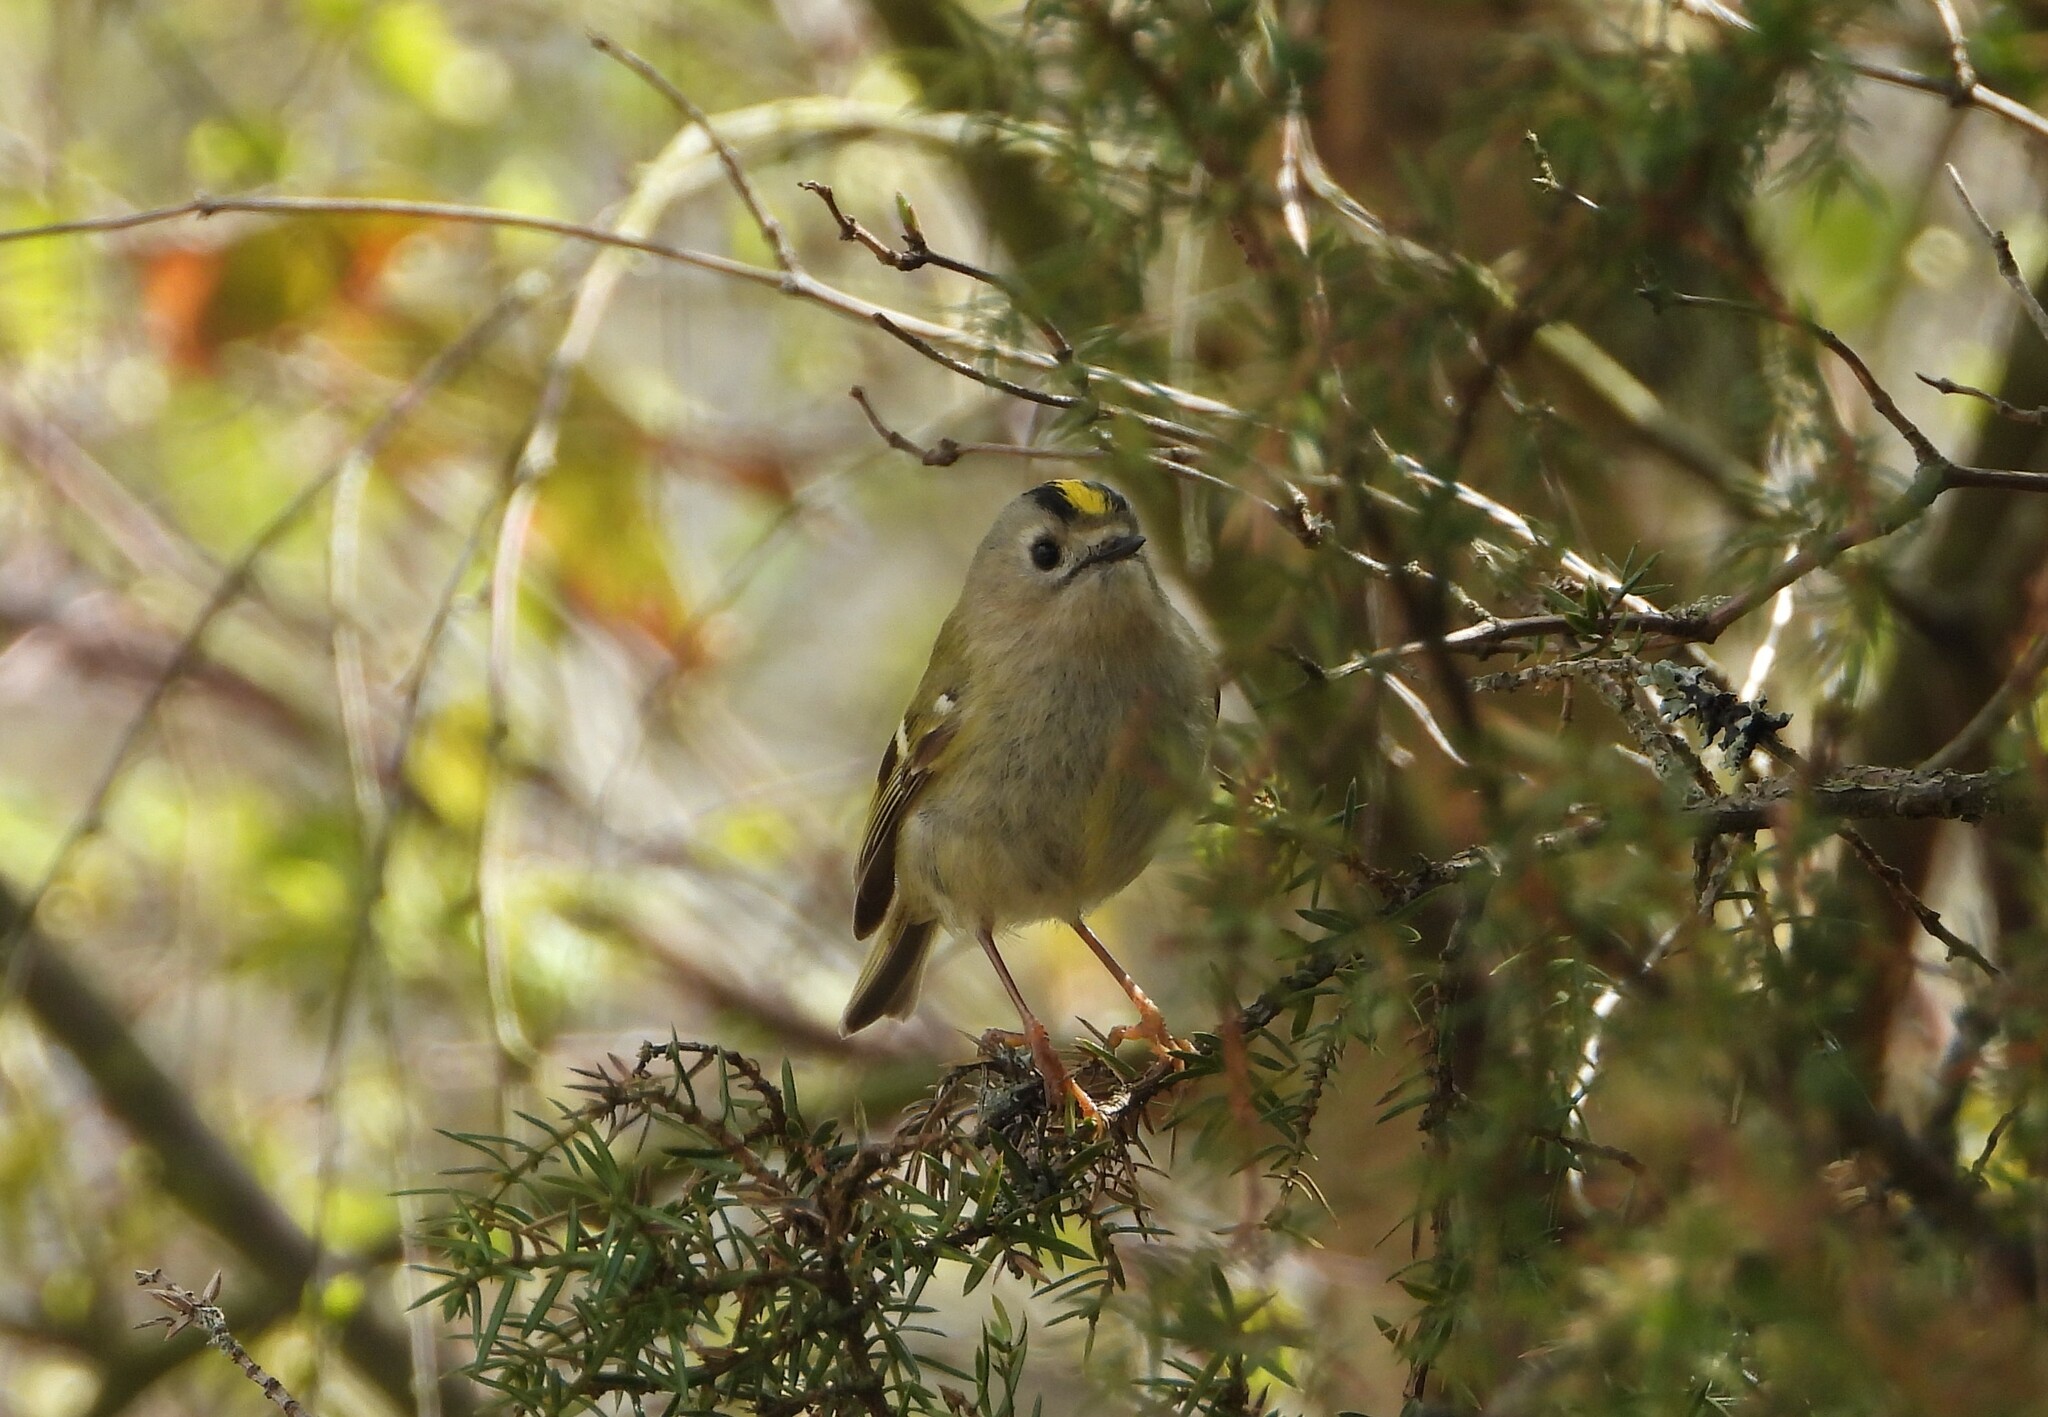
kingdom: Animalia
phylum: Chordata
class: Aves
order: Passeriformes
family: Regulidae
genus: Regulus
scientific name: Regulus regulus
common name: Goldcrest
